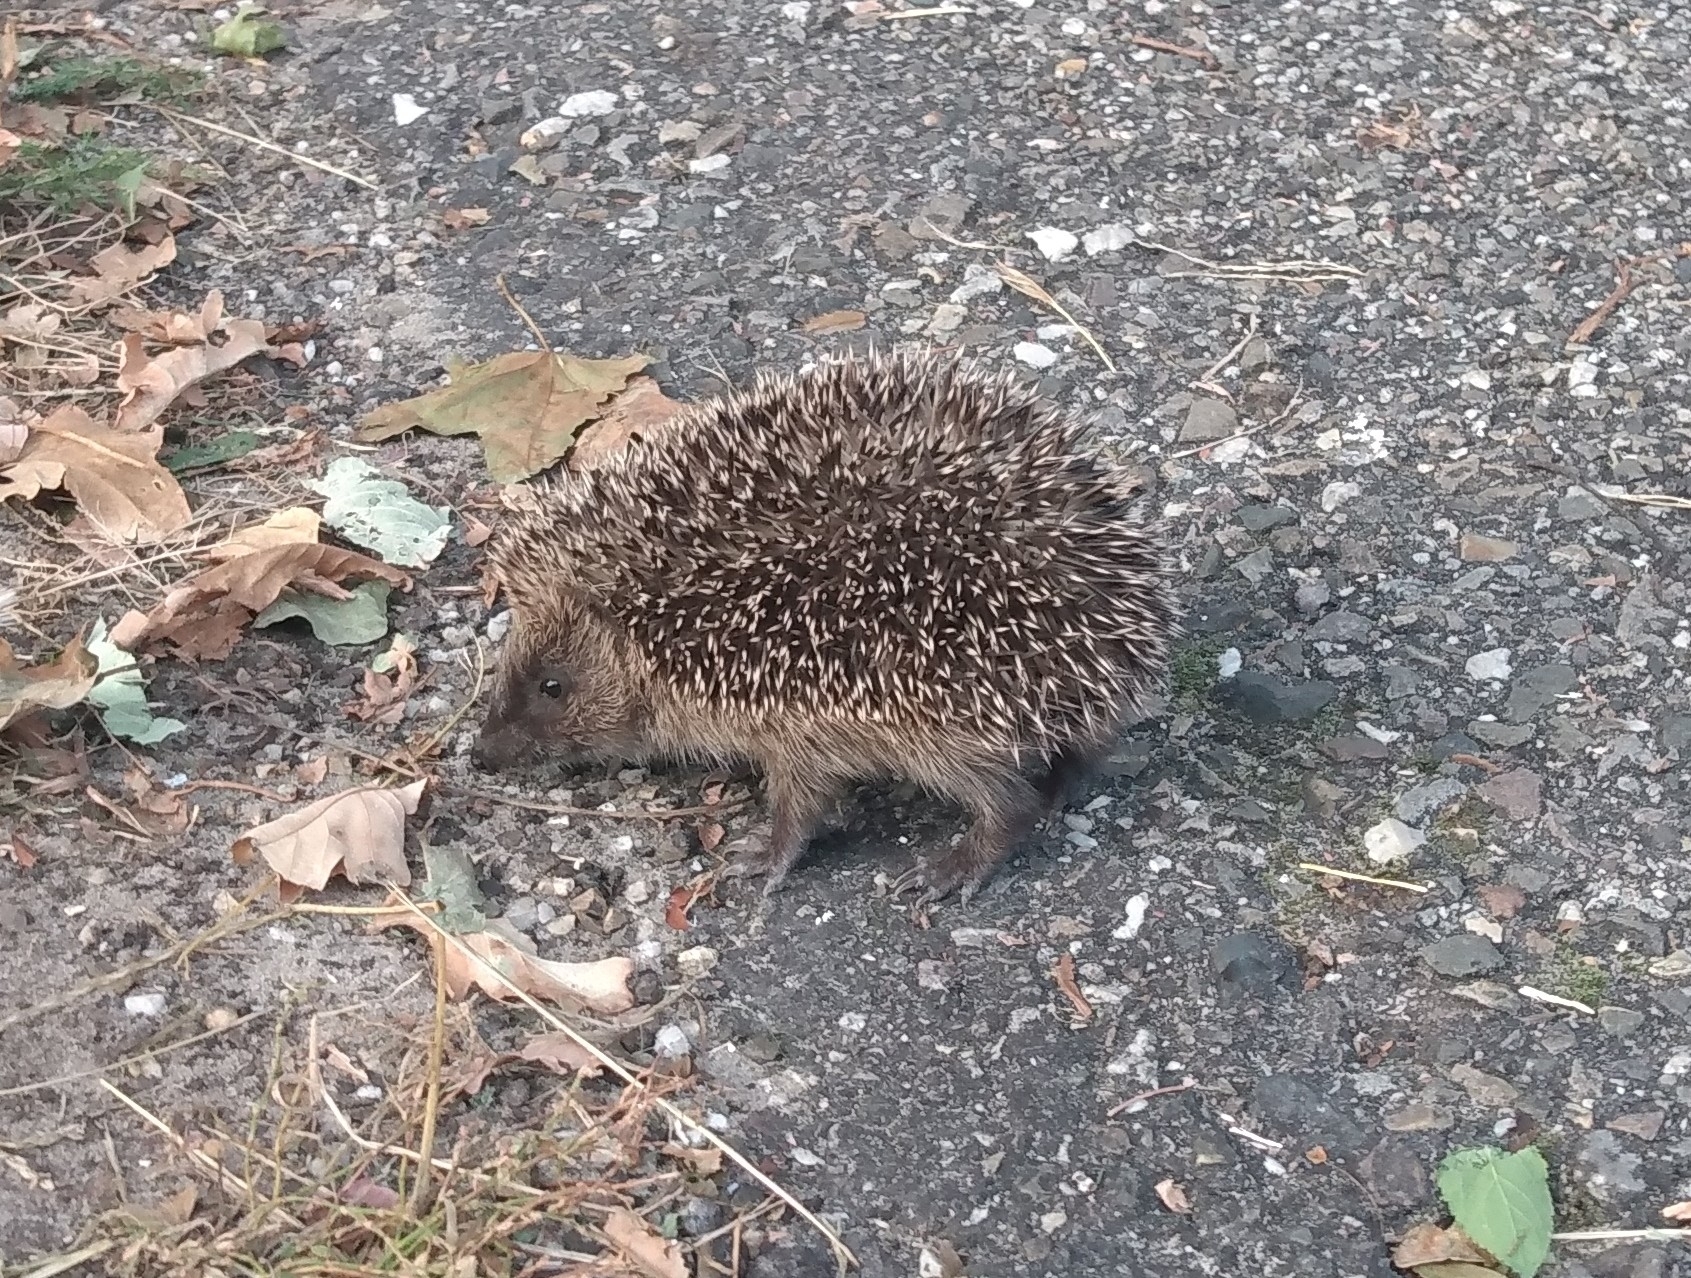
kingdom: Animalia
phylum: Chordata
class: Mammalia
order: Erinaceomorpha
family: Erinaceidae
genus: Erinaceus
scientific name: Erinaceus europaeus
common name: West european hedgehog
